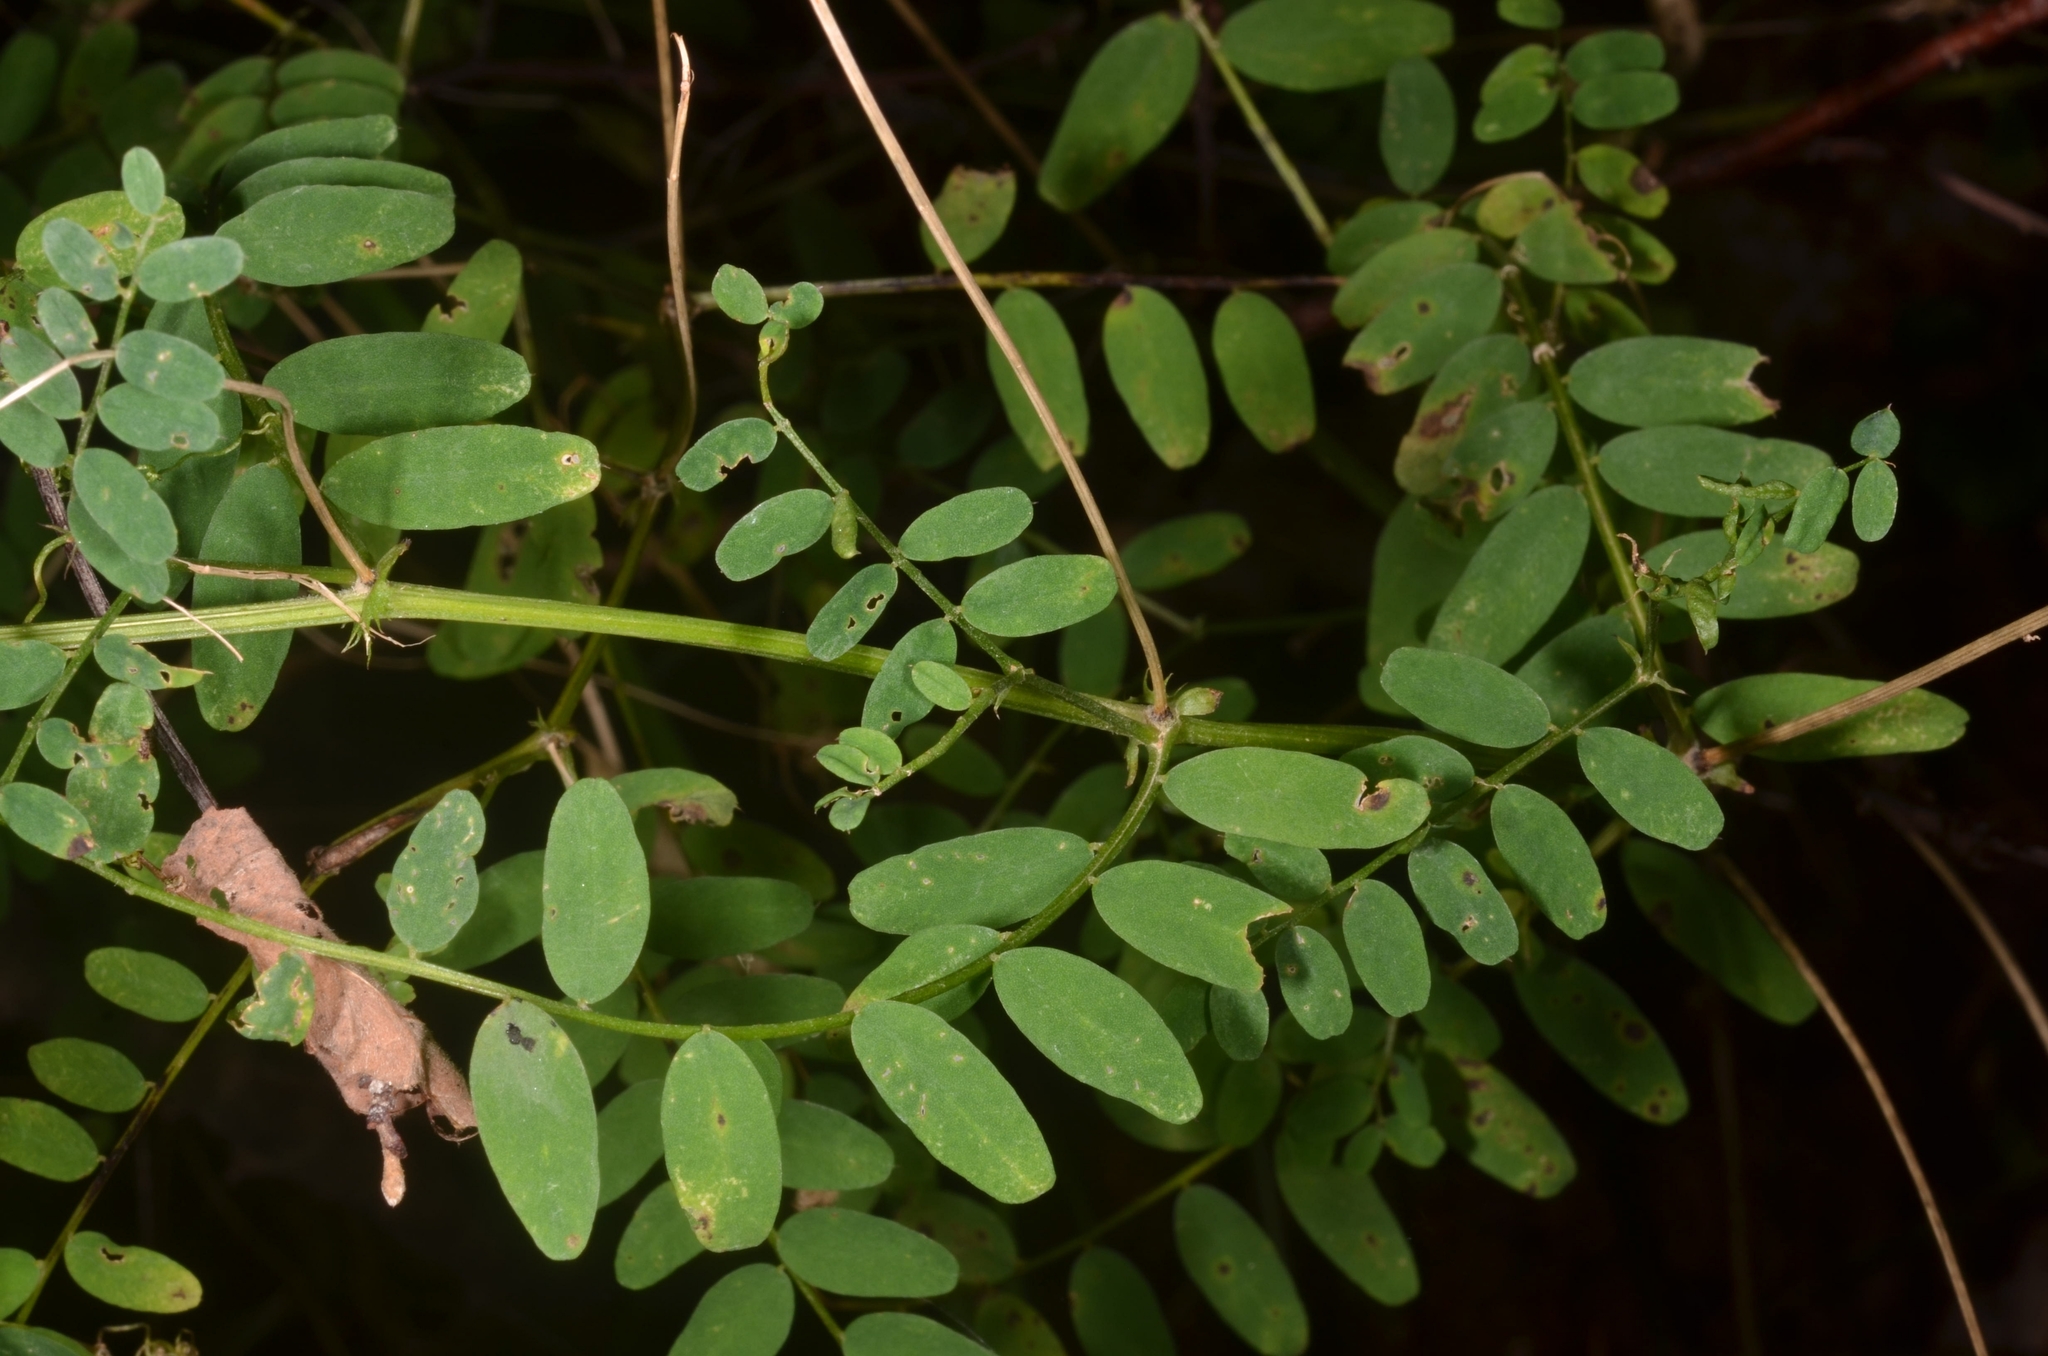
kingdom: Plantae
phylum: Tracheophyta
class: Magnoliopsida
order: Fabales
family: Fabaceae
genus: Vicia
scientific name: Vicia sylvatica
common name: Wood vetch
